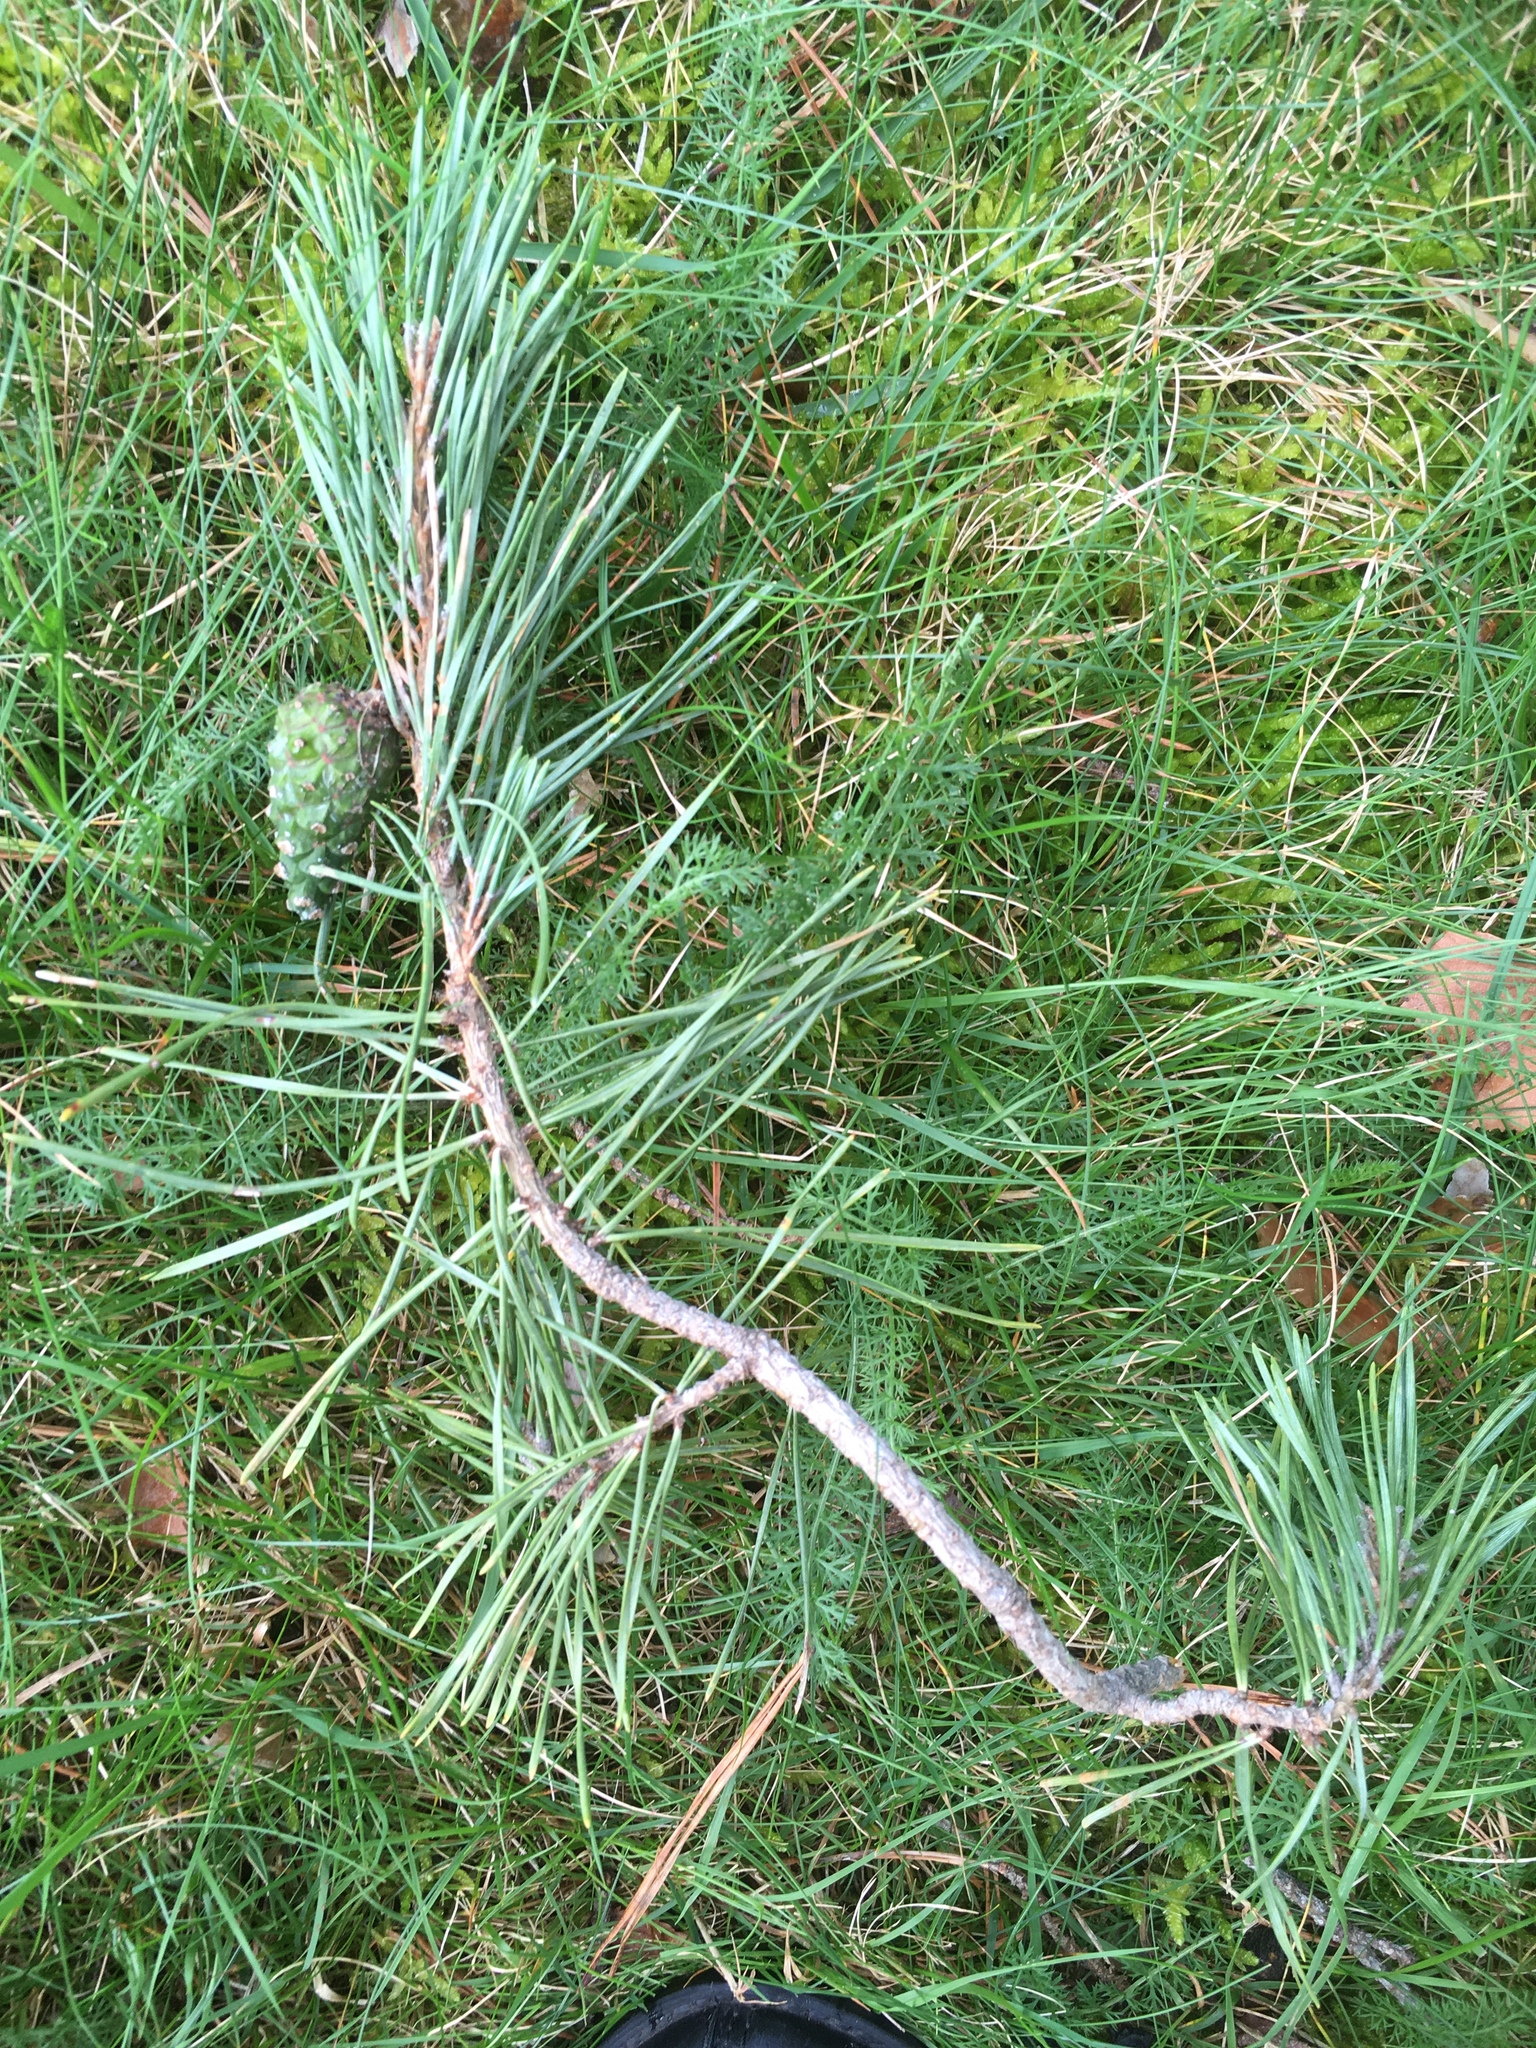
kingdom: Plantae
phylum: Tracheophyta
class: Pinopsida
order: Pinales
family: Pinaceae
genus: Pinus
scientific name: Pinus sylvestris
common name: Scots pine
